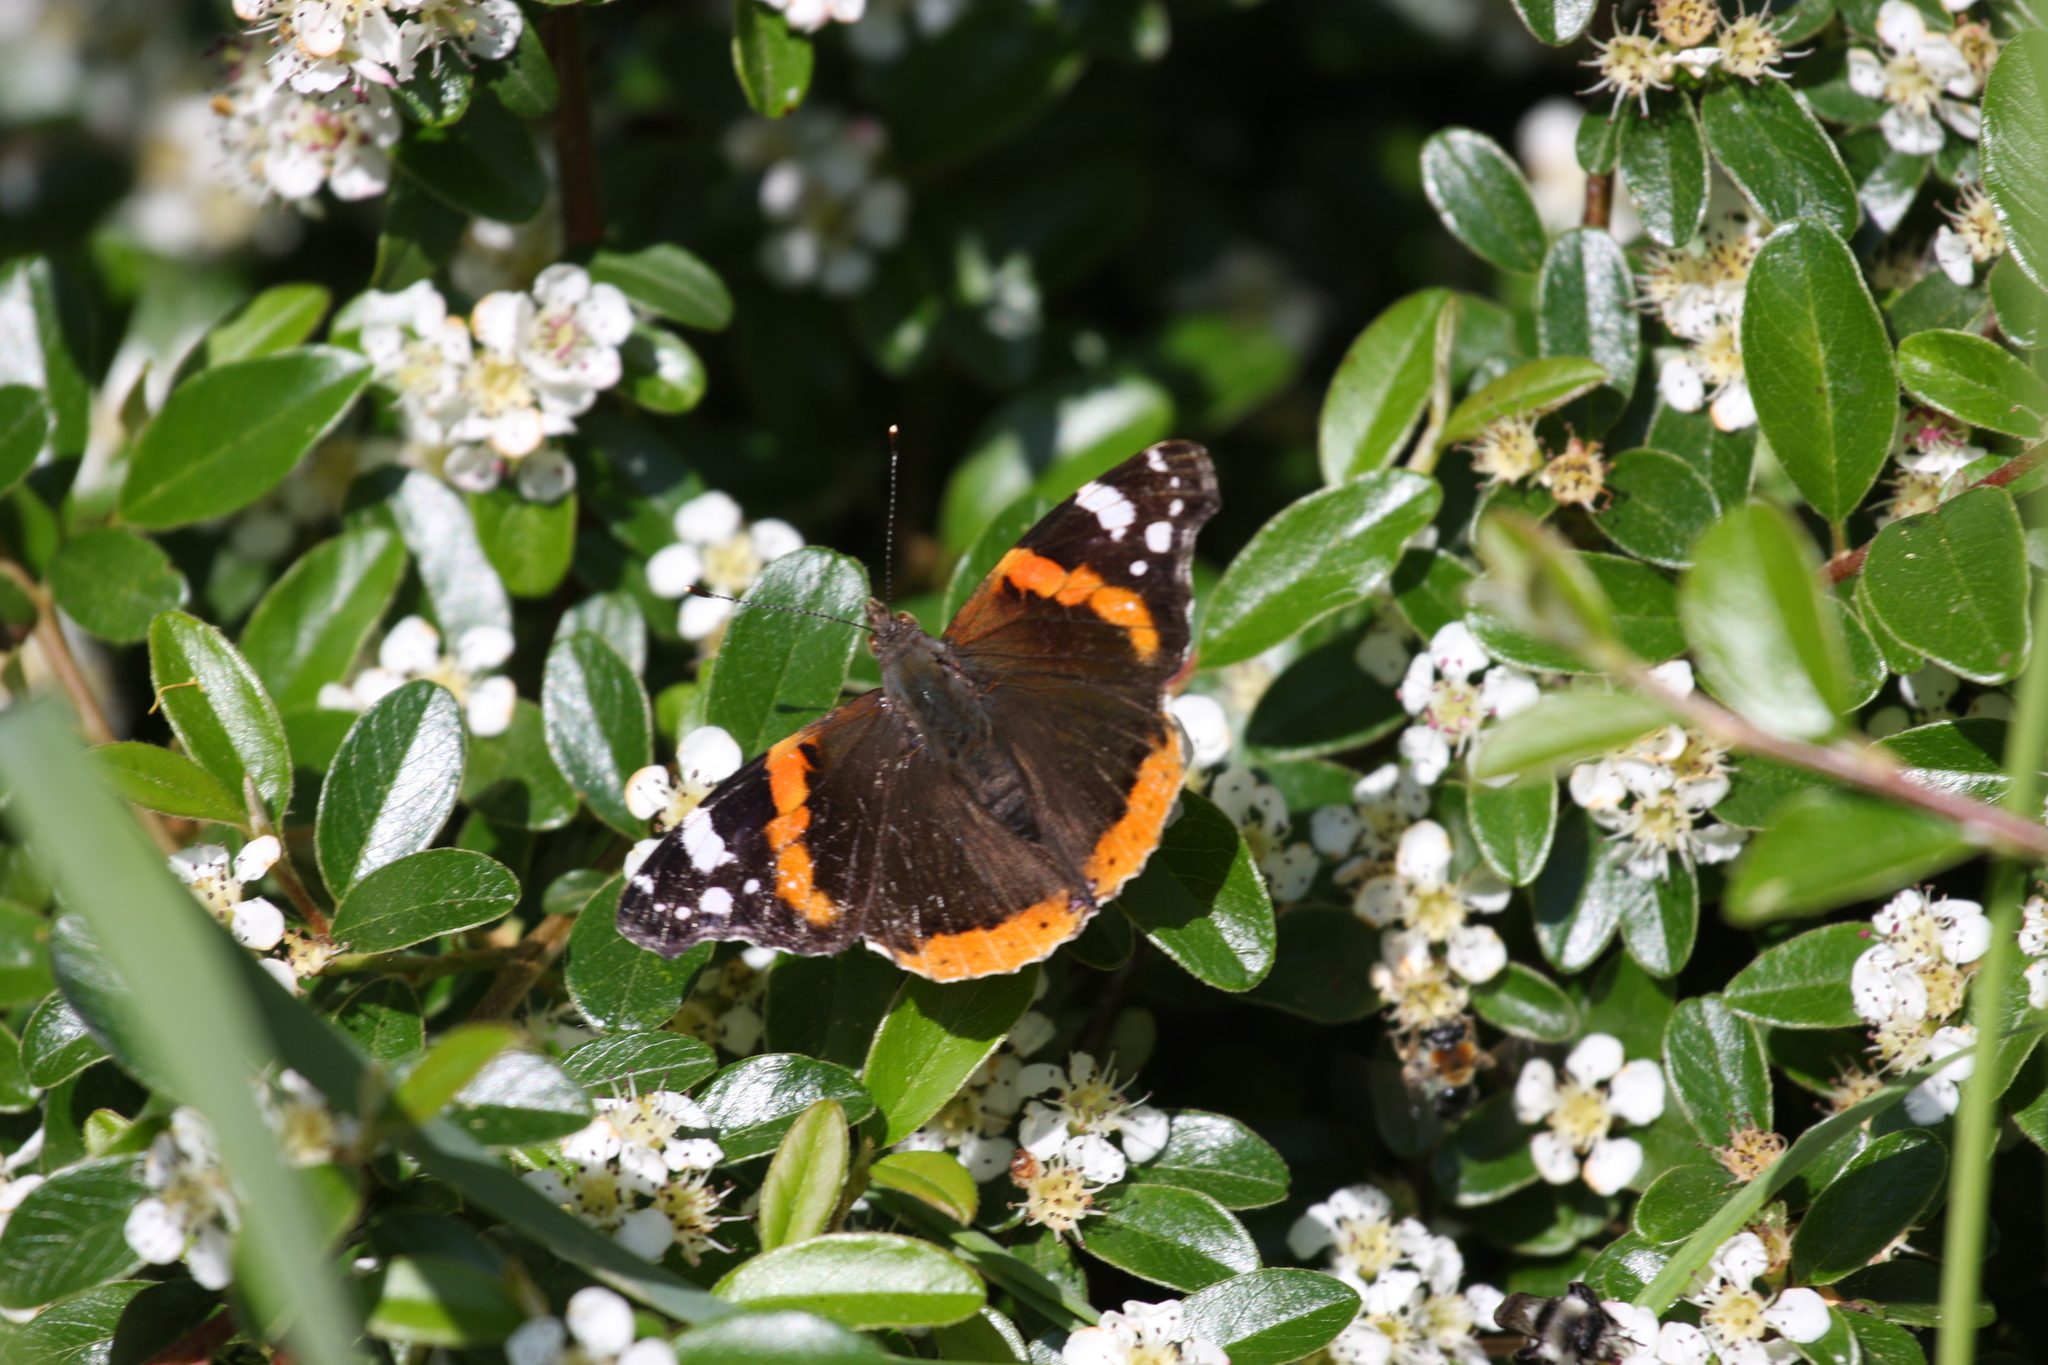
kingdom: Animalia
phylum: Arthropoda
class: Insecta
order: Lepidoptera
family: Nymphalidae
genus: Vanessa
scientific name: Vanessa atalanta
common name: Red admiral
